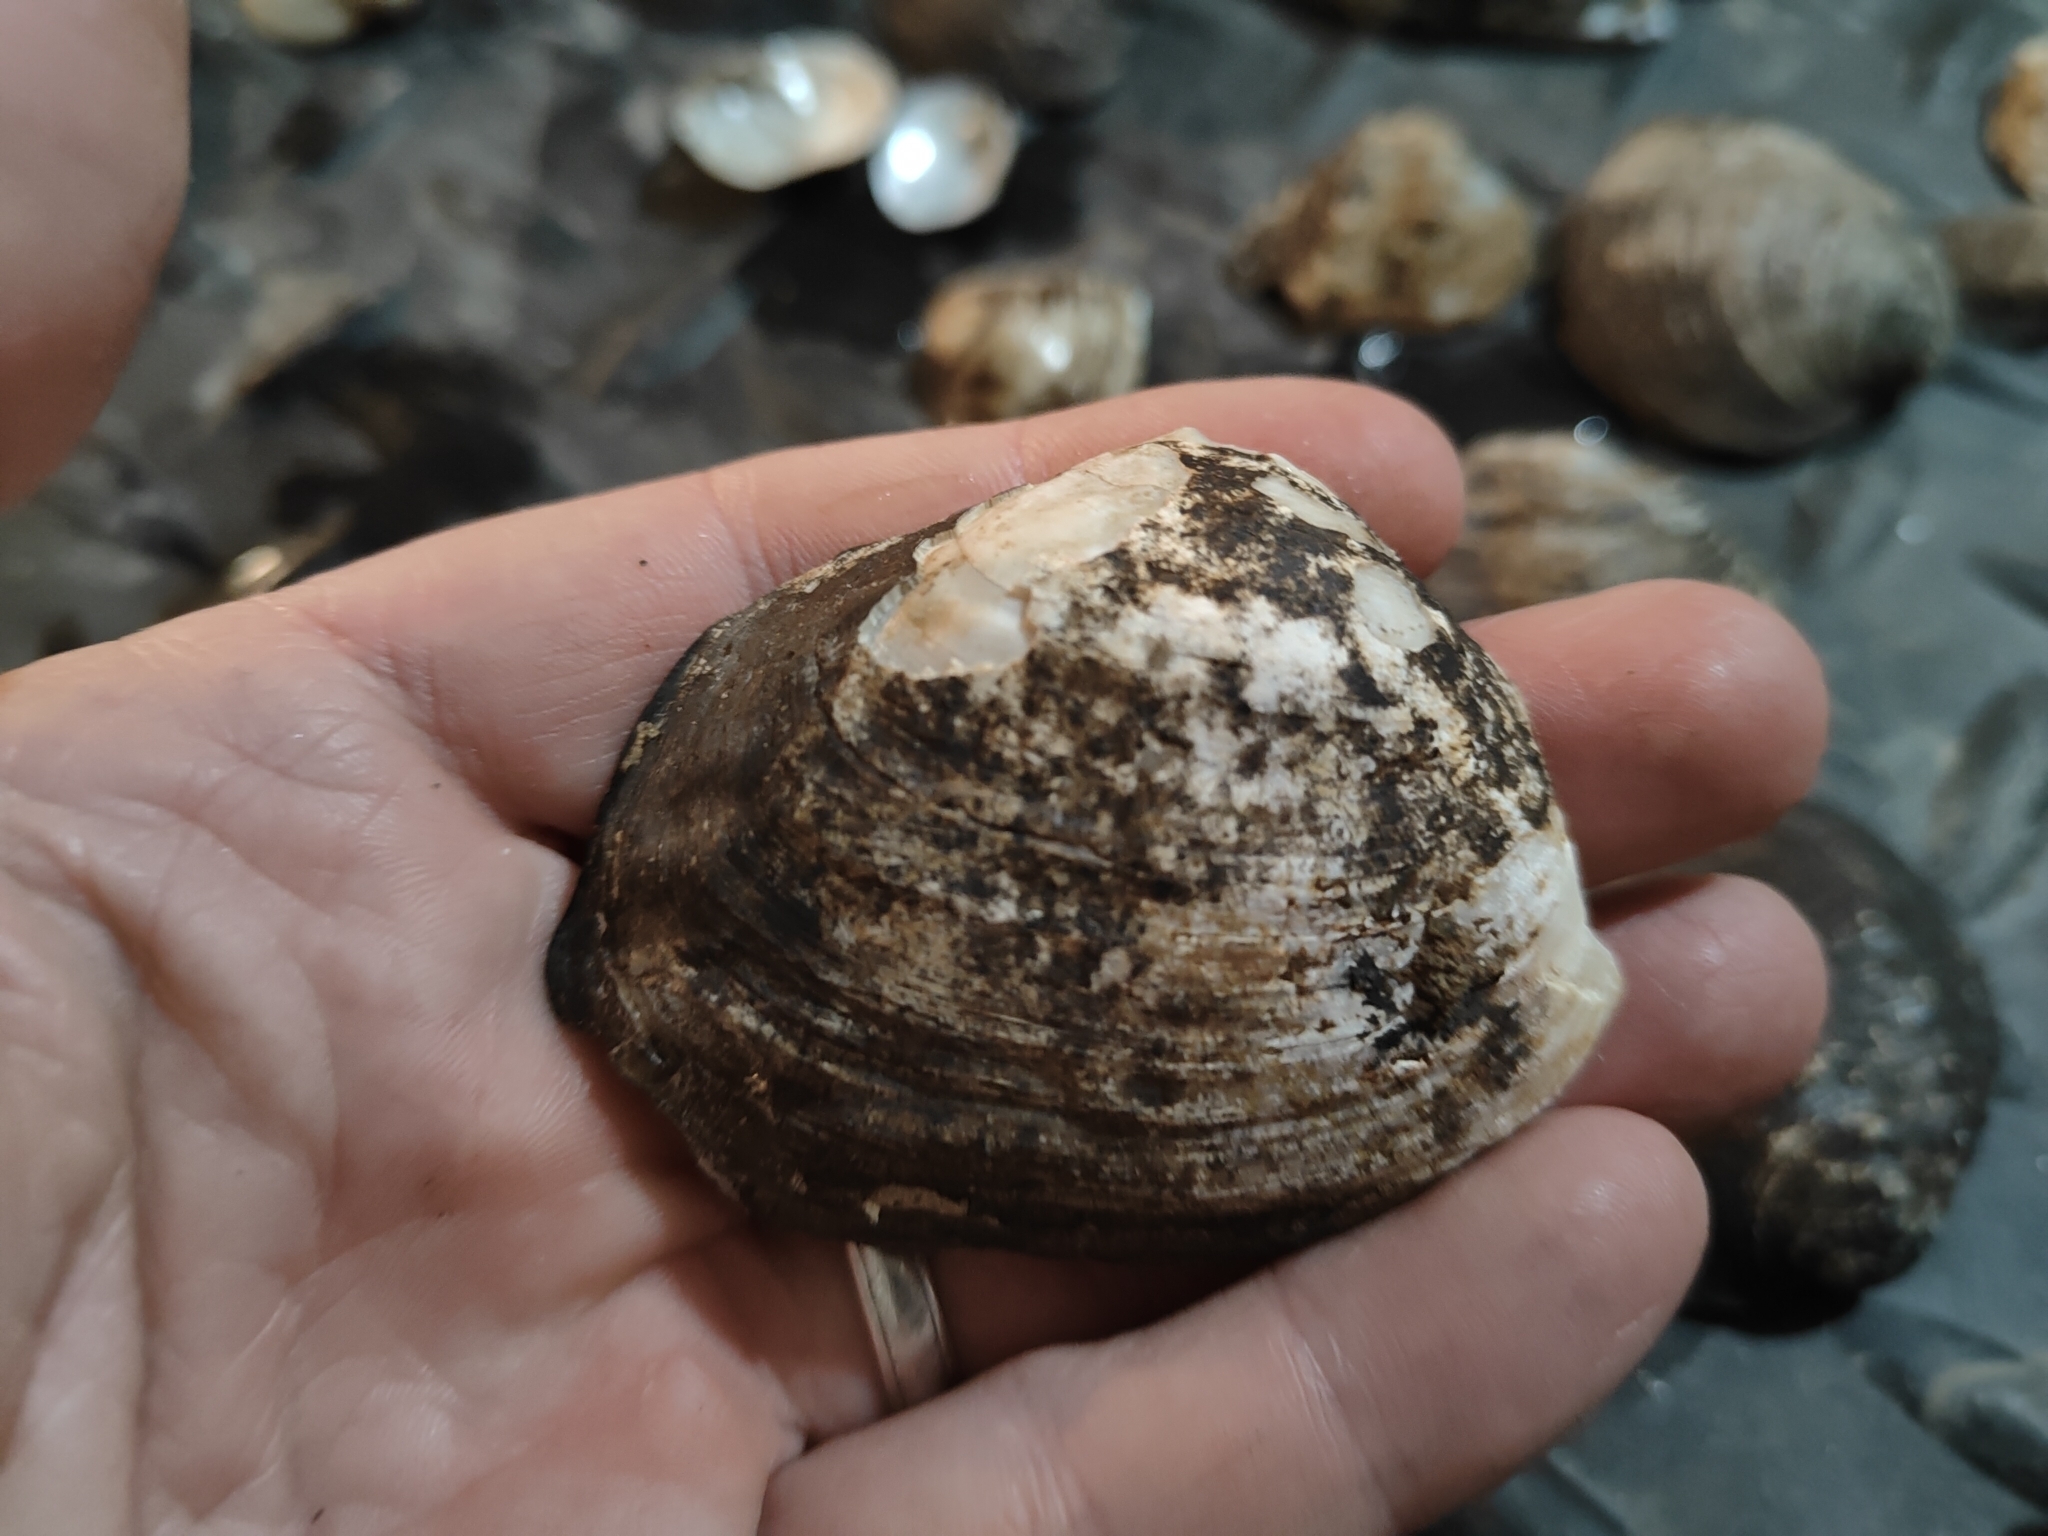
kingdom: Animalia
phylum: Mollusca
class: Bivalvia
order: Unionida
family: Unionidae
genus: Arcidens
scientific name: Arcidens confragosus
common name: Rock pocketbook
